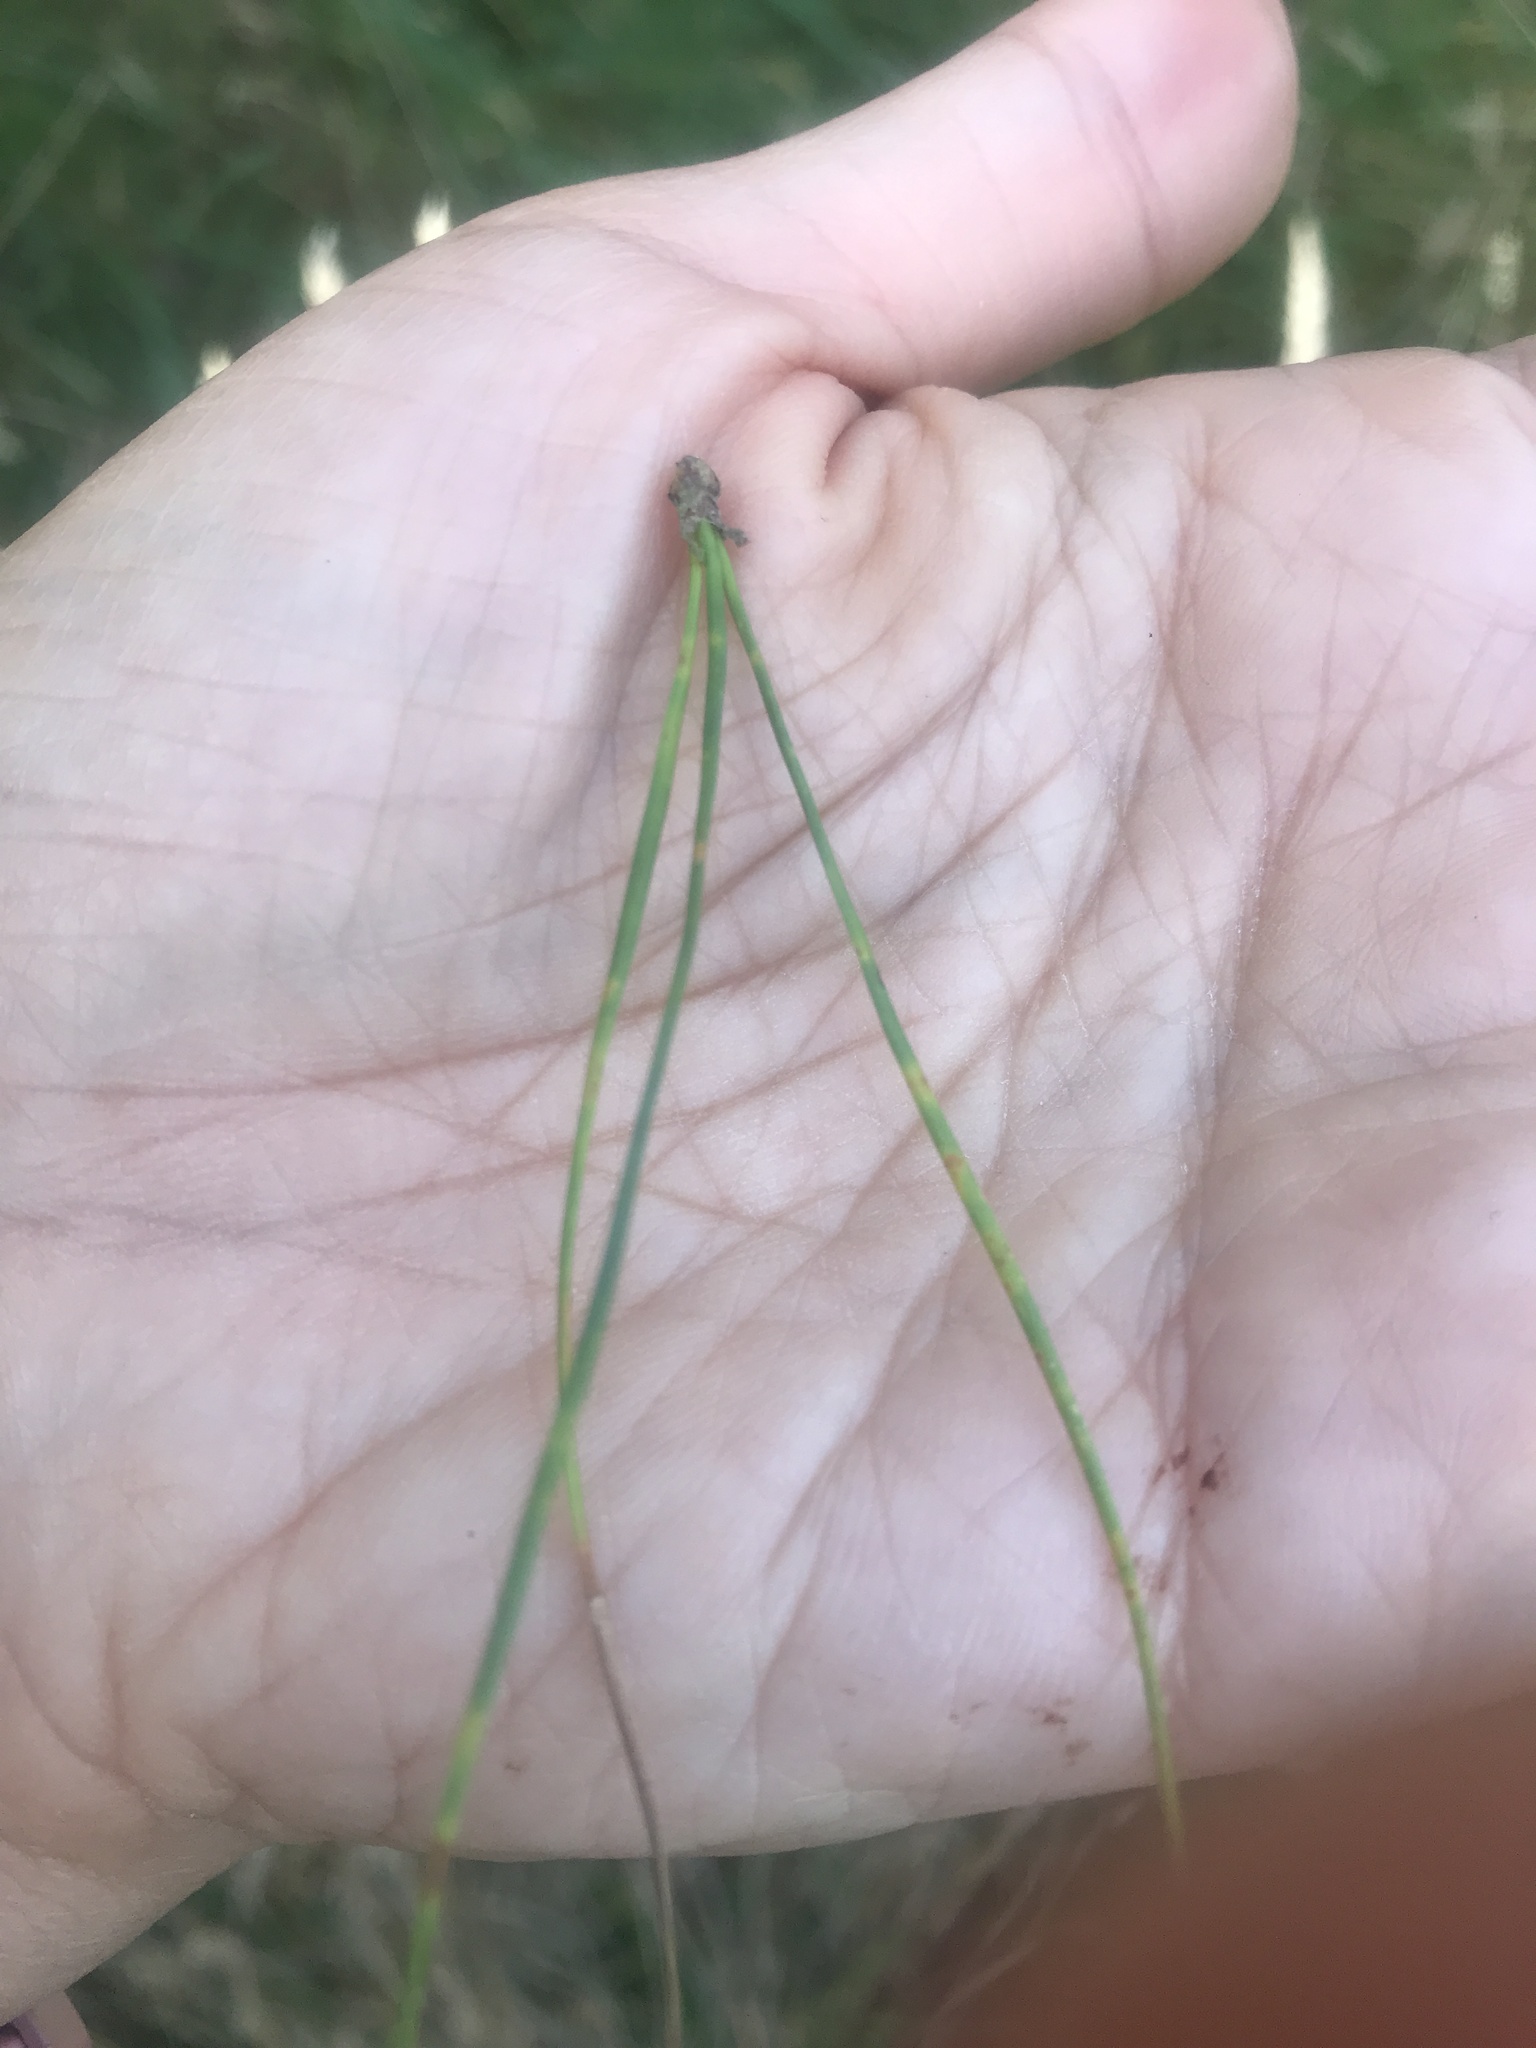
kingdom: Plantae
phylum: Tracheophyta
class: Pinopsida
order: Pinales
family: Pinaceae
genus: Pinus
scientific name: Pinus radiata
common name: Monterey pine
